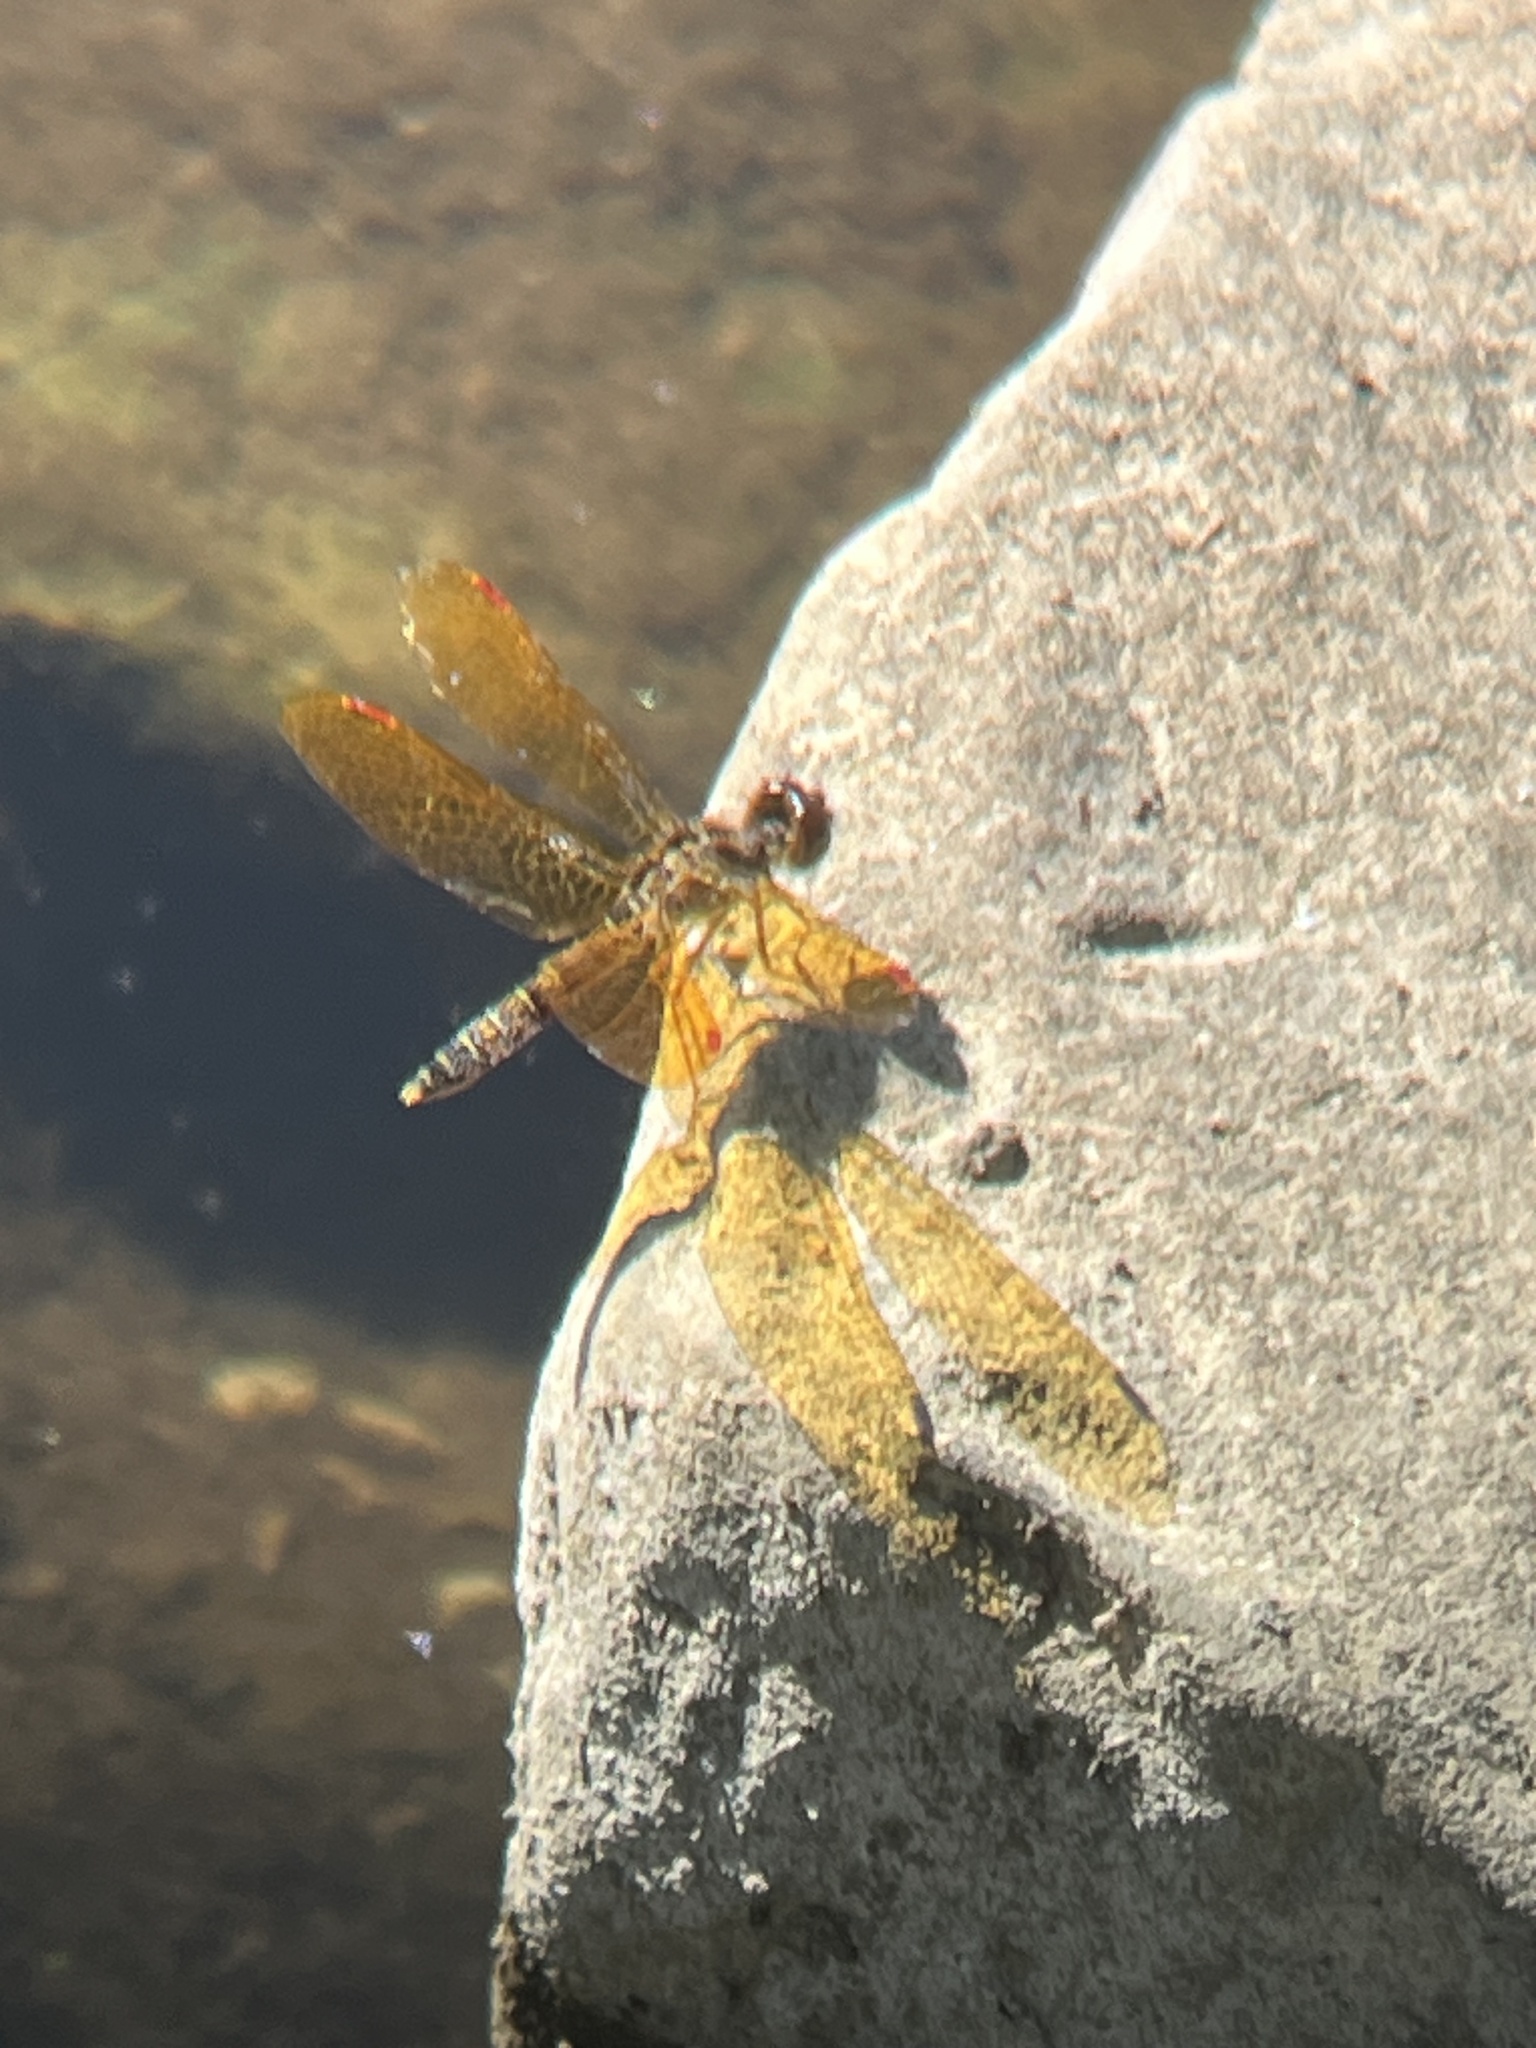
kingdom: Animalia
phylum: Arthropoda
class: Insecta
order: Odonata
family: Libellulidae
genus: Perithemis
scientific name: Perithemis tenera
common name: Eastern amberwing
